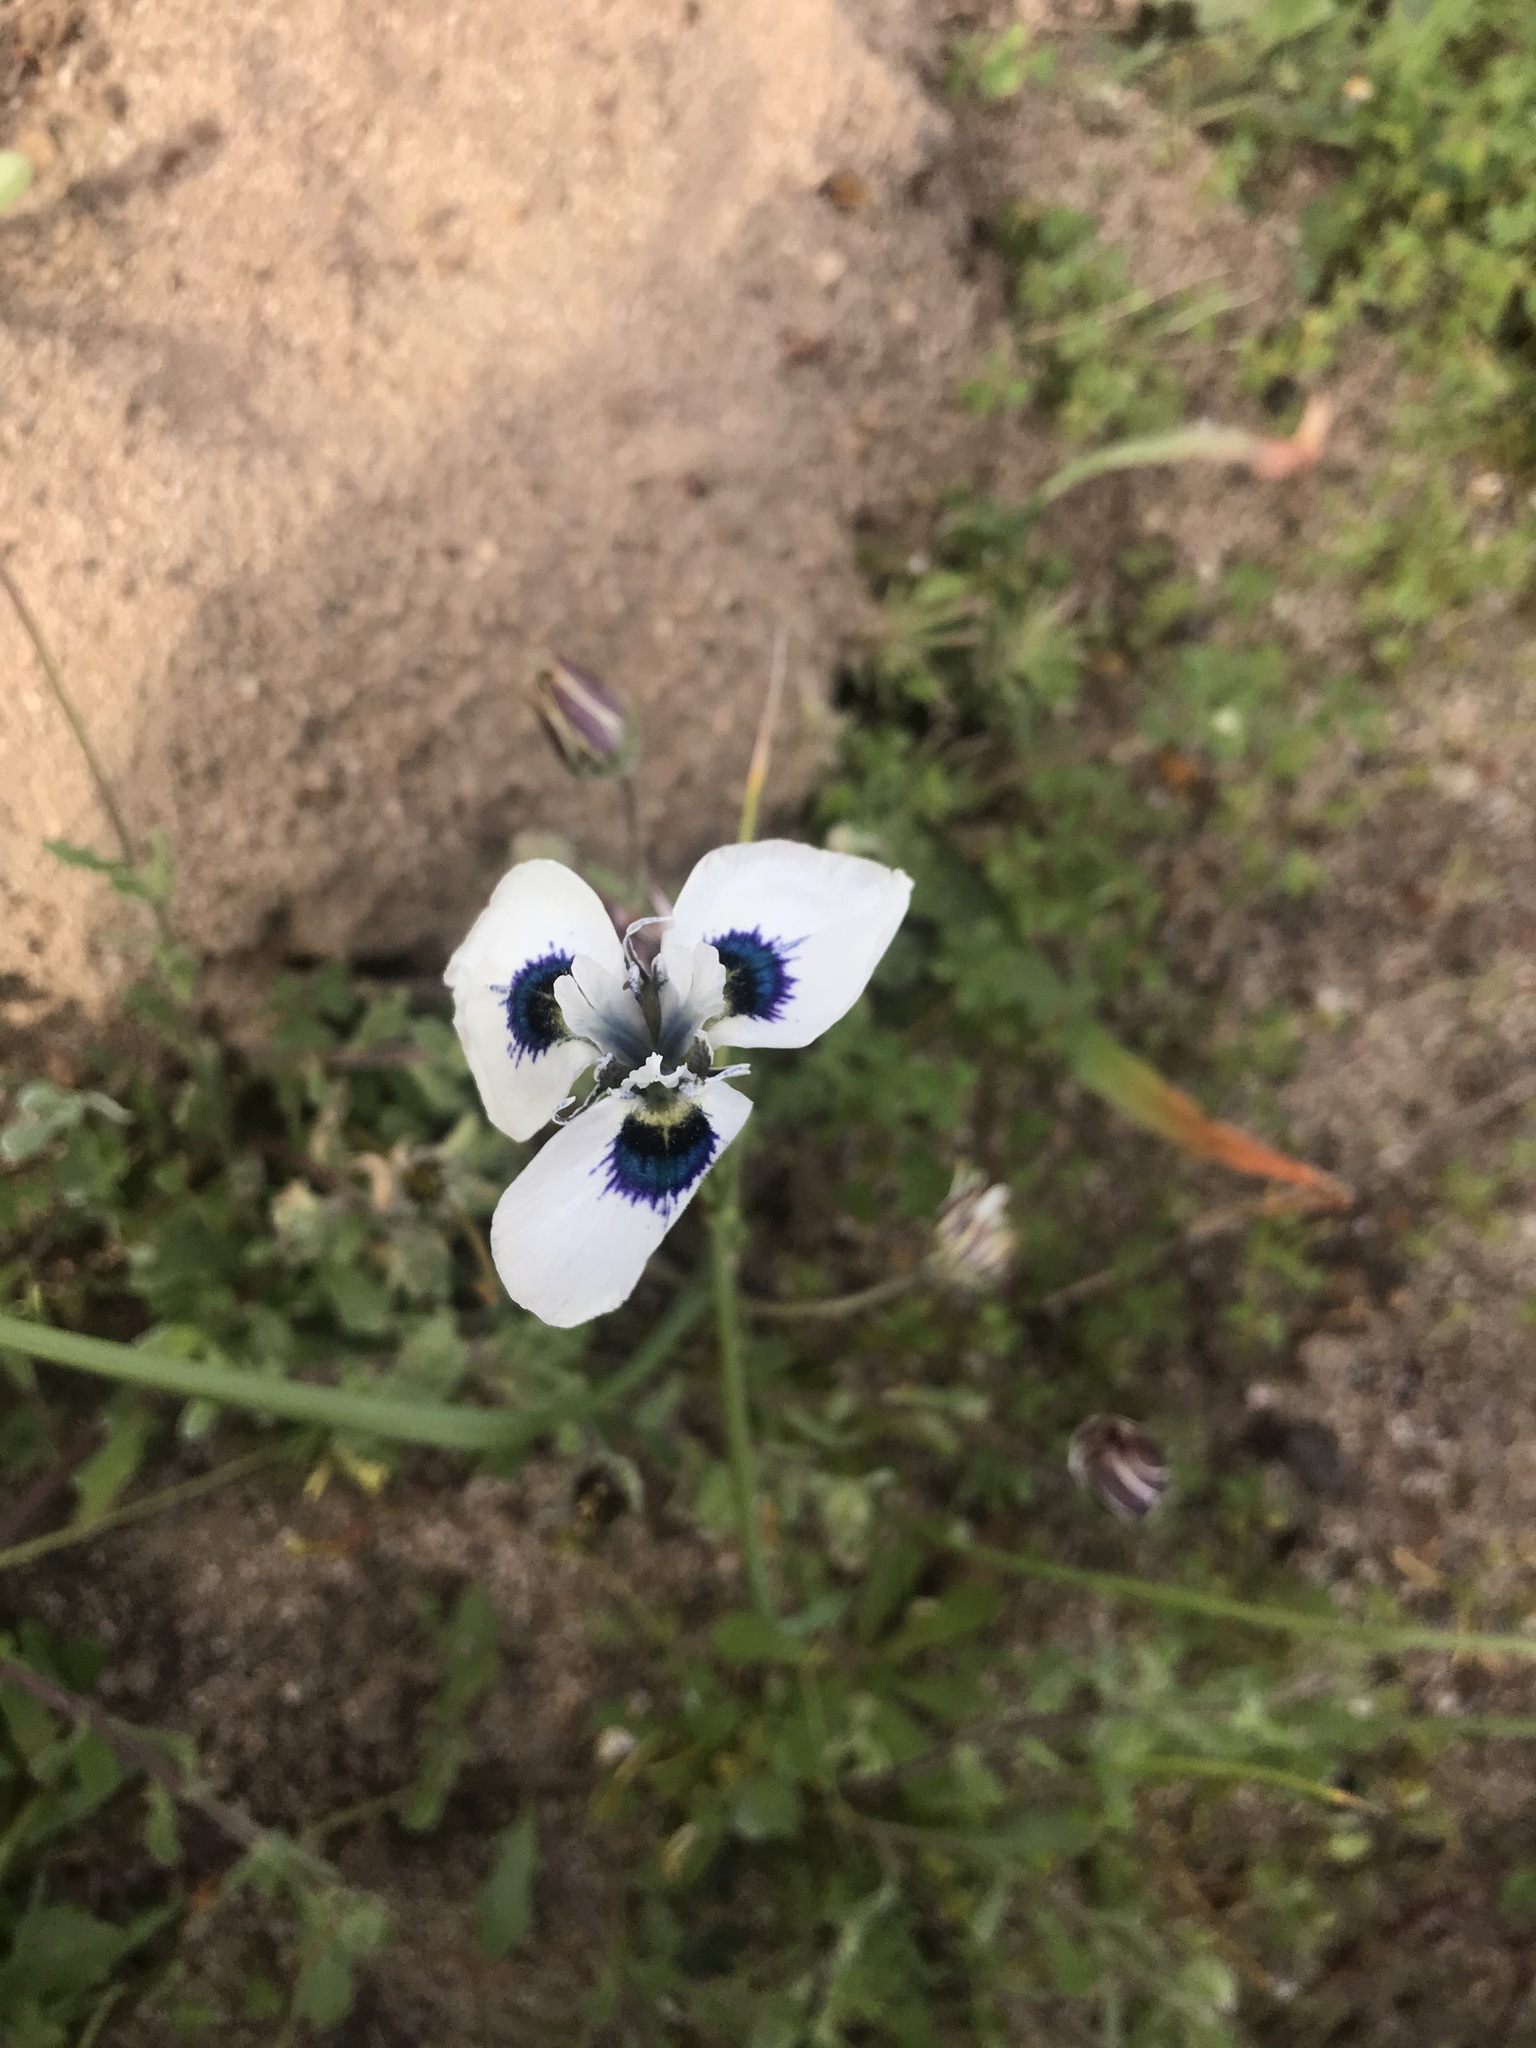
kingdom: Plantae
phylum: Tracheophyta
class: Liliopsida
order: Asparagales
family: Iridaceae
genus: Moraea
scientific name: Moraea aristata
